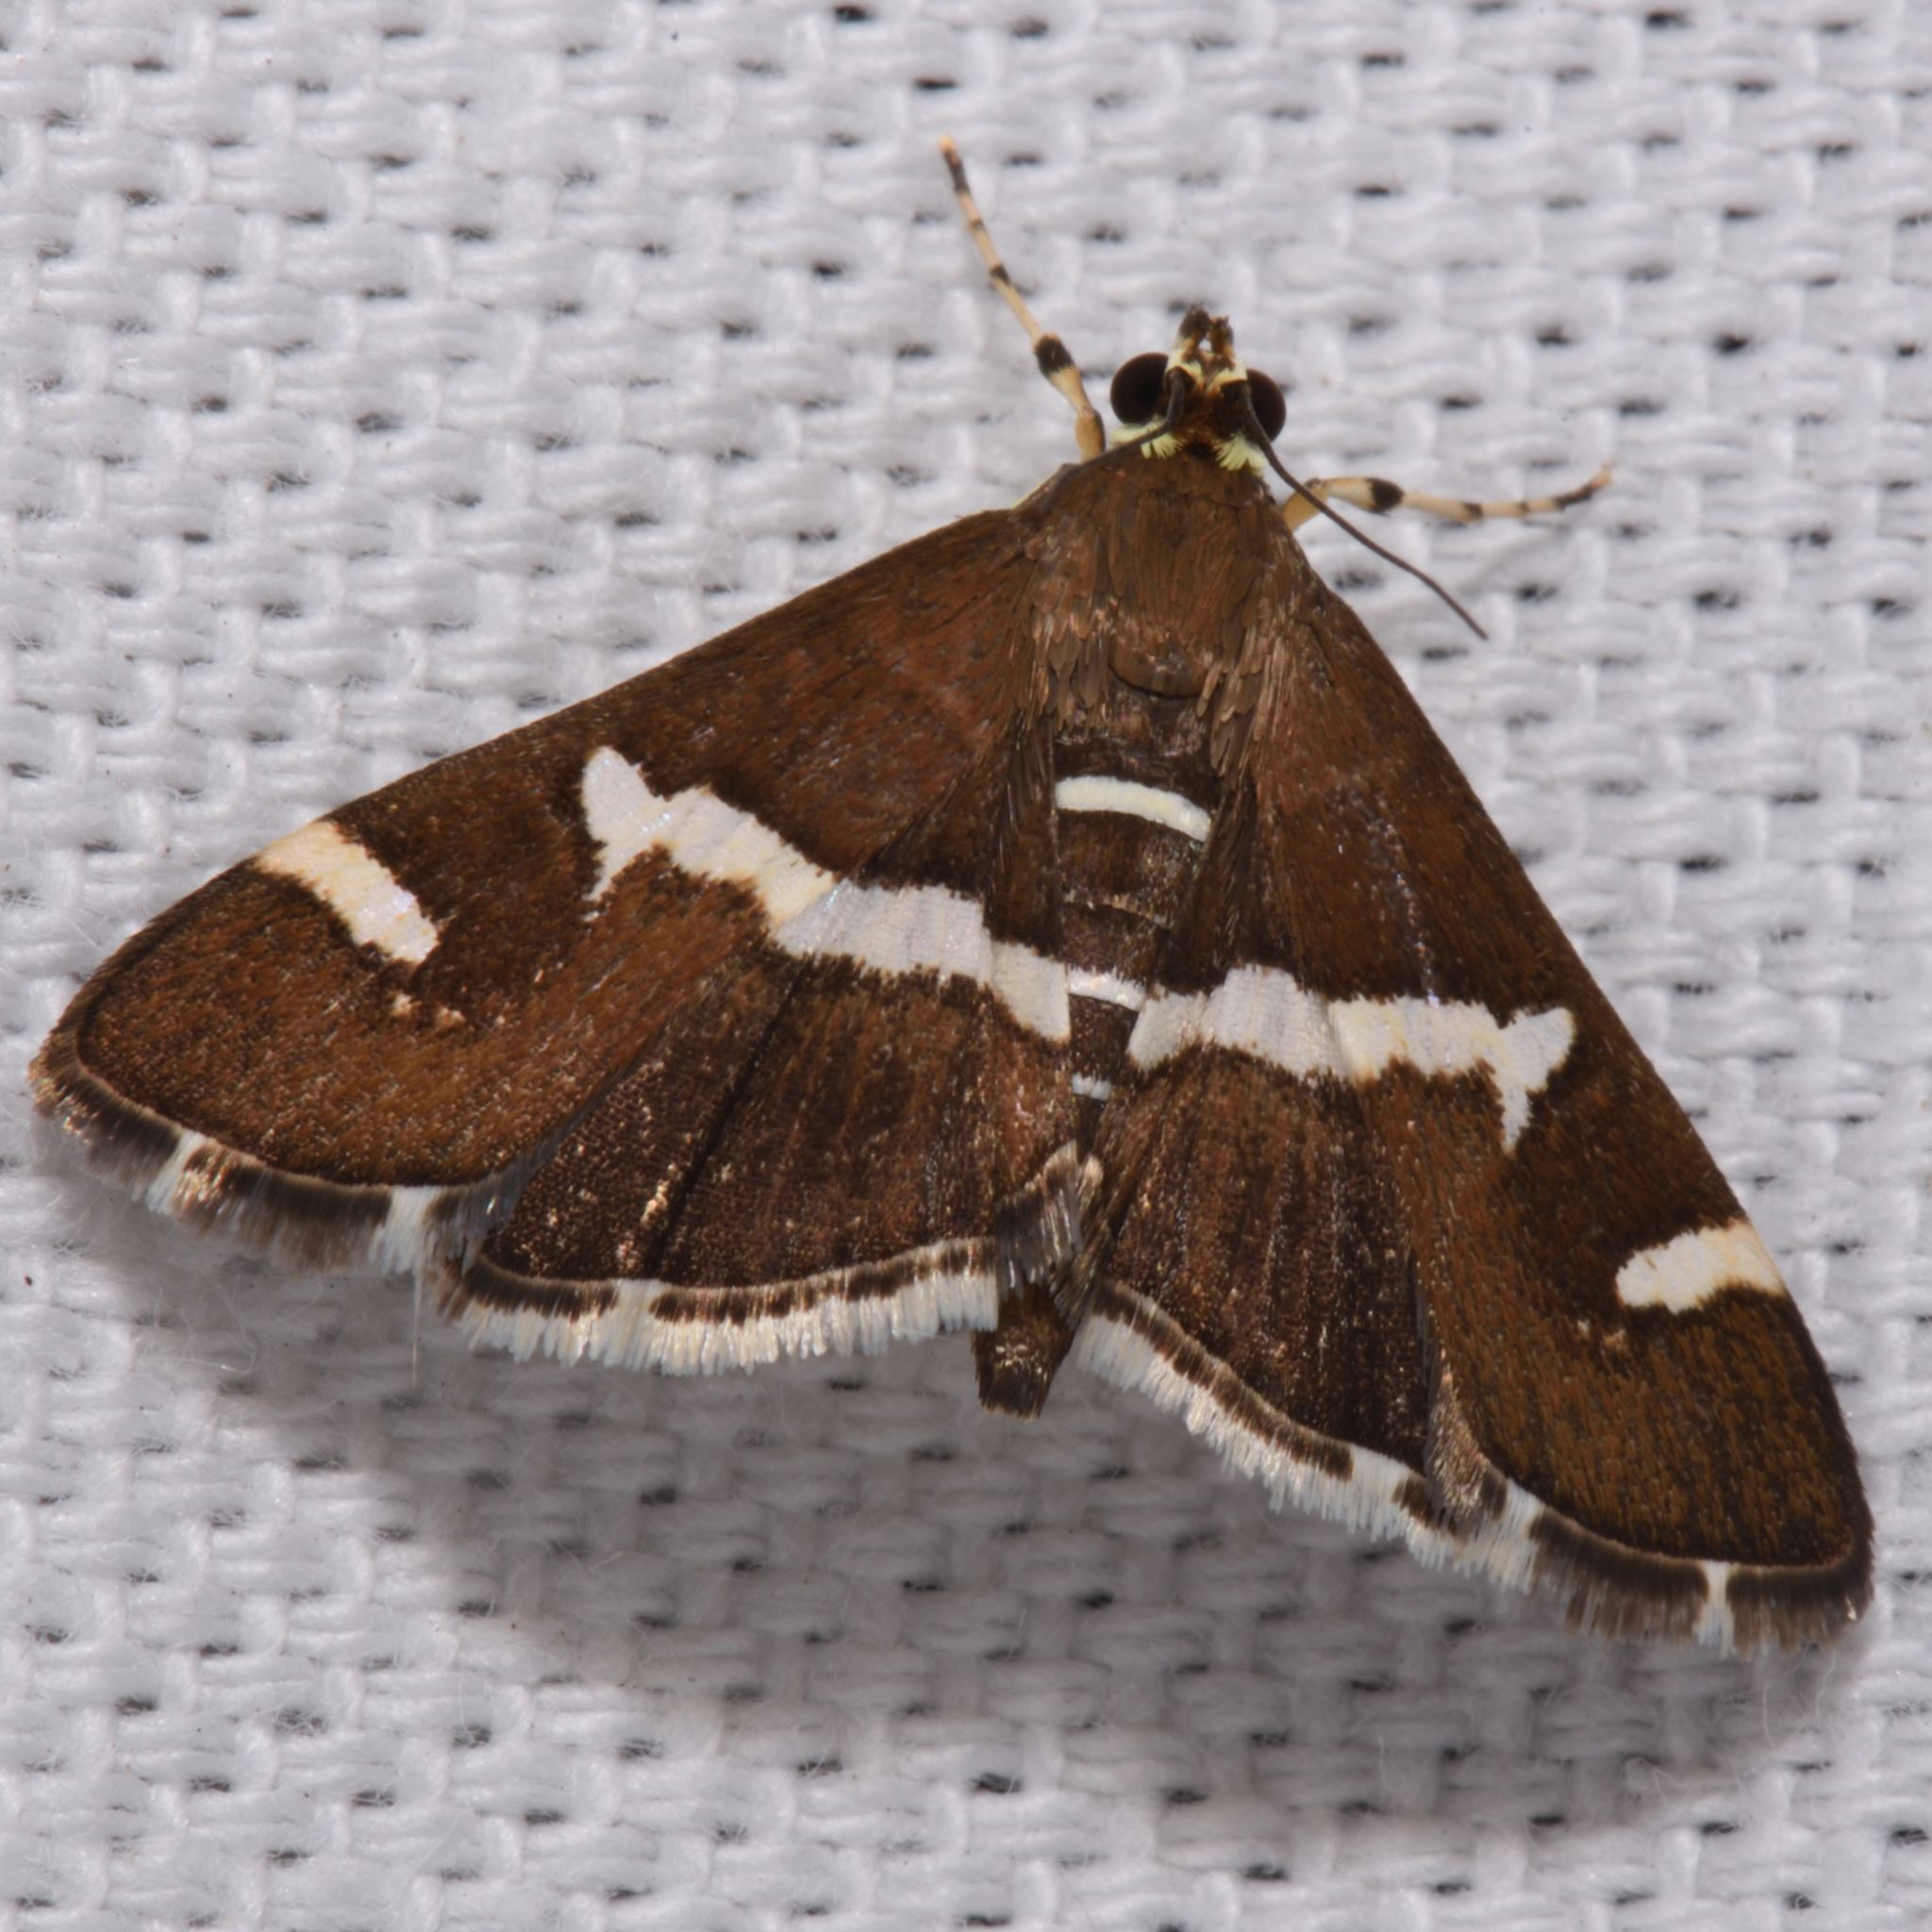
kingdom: Animalia
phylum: Arthropoda
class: Insecta
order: Lepidoptera
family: Crambidae
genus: Spoladea
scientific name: Spoladea recurvalis
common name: Beet webworm moth
